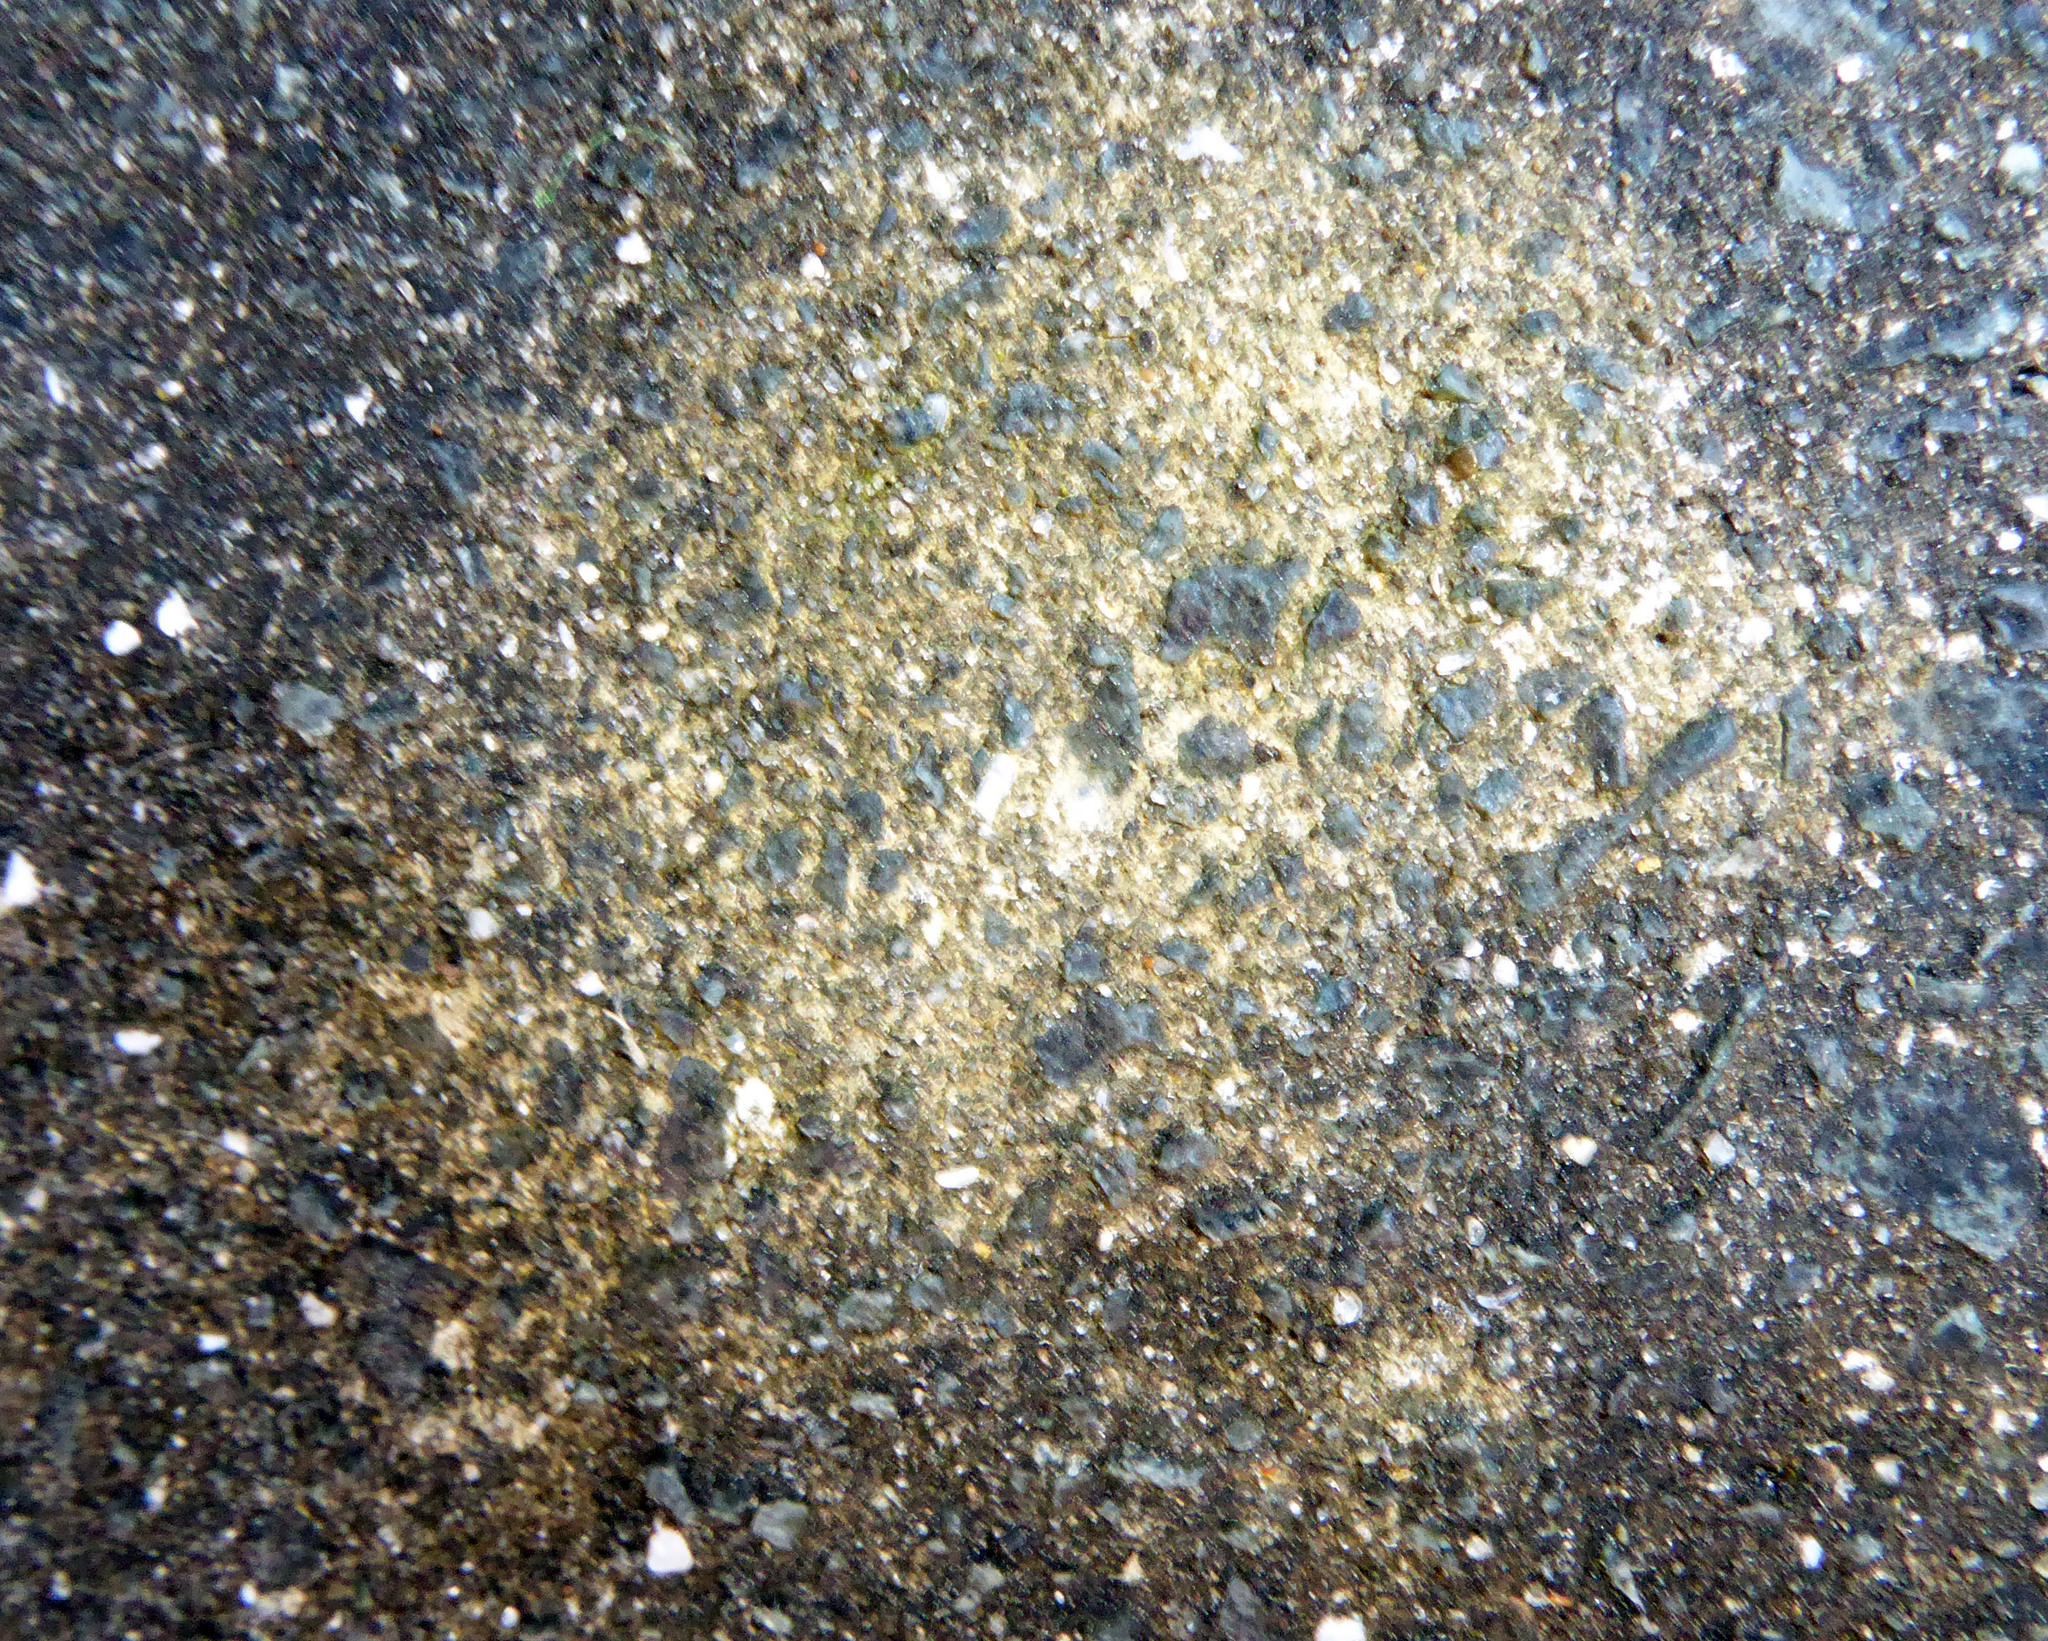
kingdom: Fungi
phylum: Ascomycota
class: Lecanoromycetes
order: Lecanorales
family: Psoraceae
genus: Protoblastenia
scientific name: Protoblastenia rupestris
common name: Chewing gum lichen
